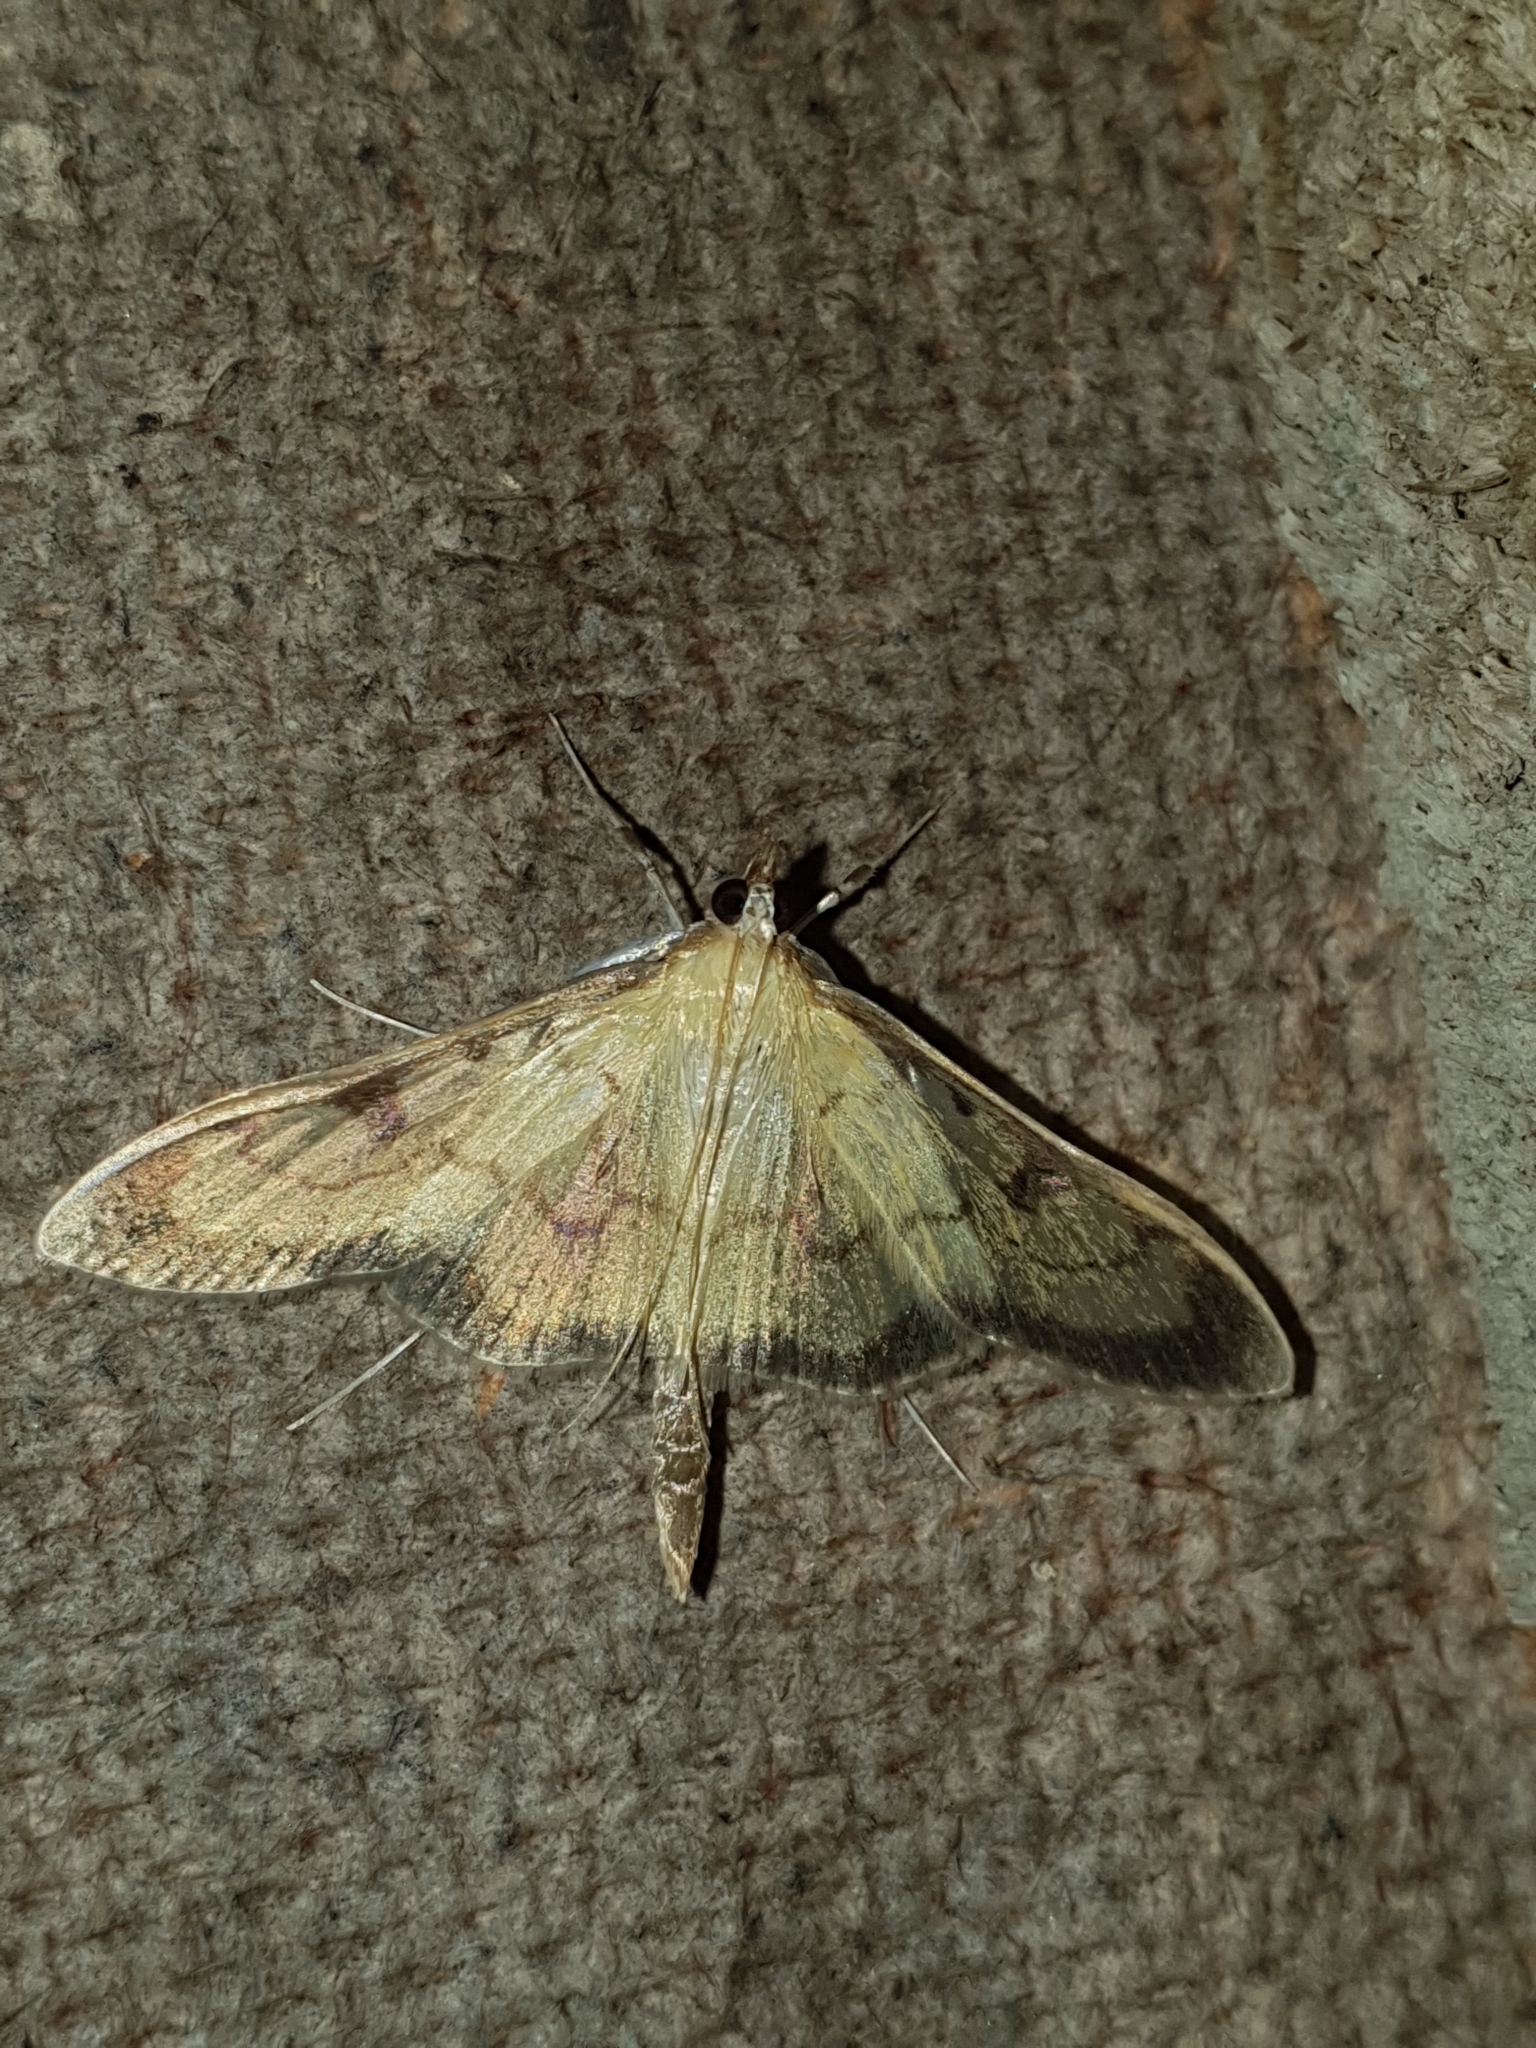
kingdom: Animalia
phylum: Arthropoda
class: Insecta
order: Lepidoptera
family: Crambidae
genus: Paratalanta
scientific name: Paratalanta ussurialis
